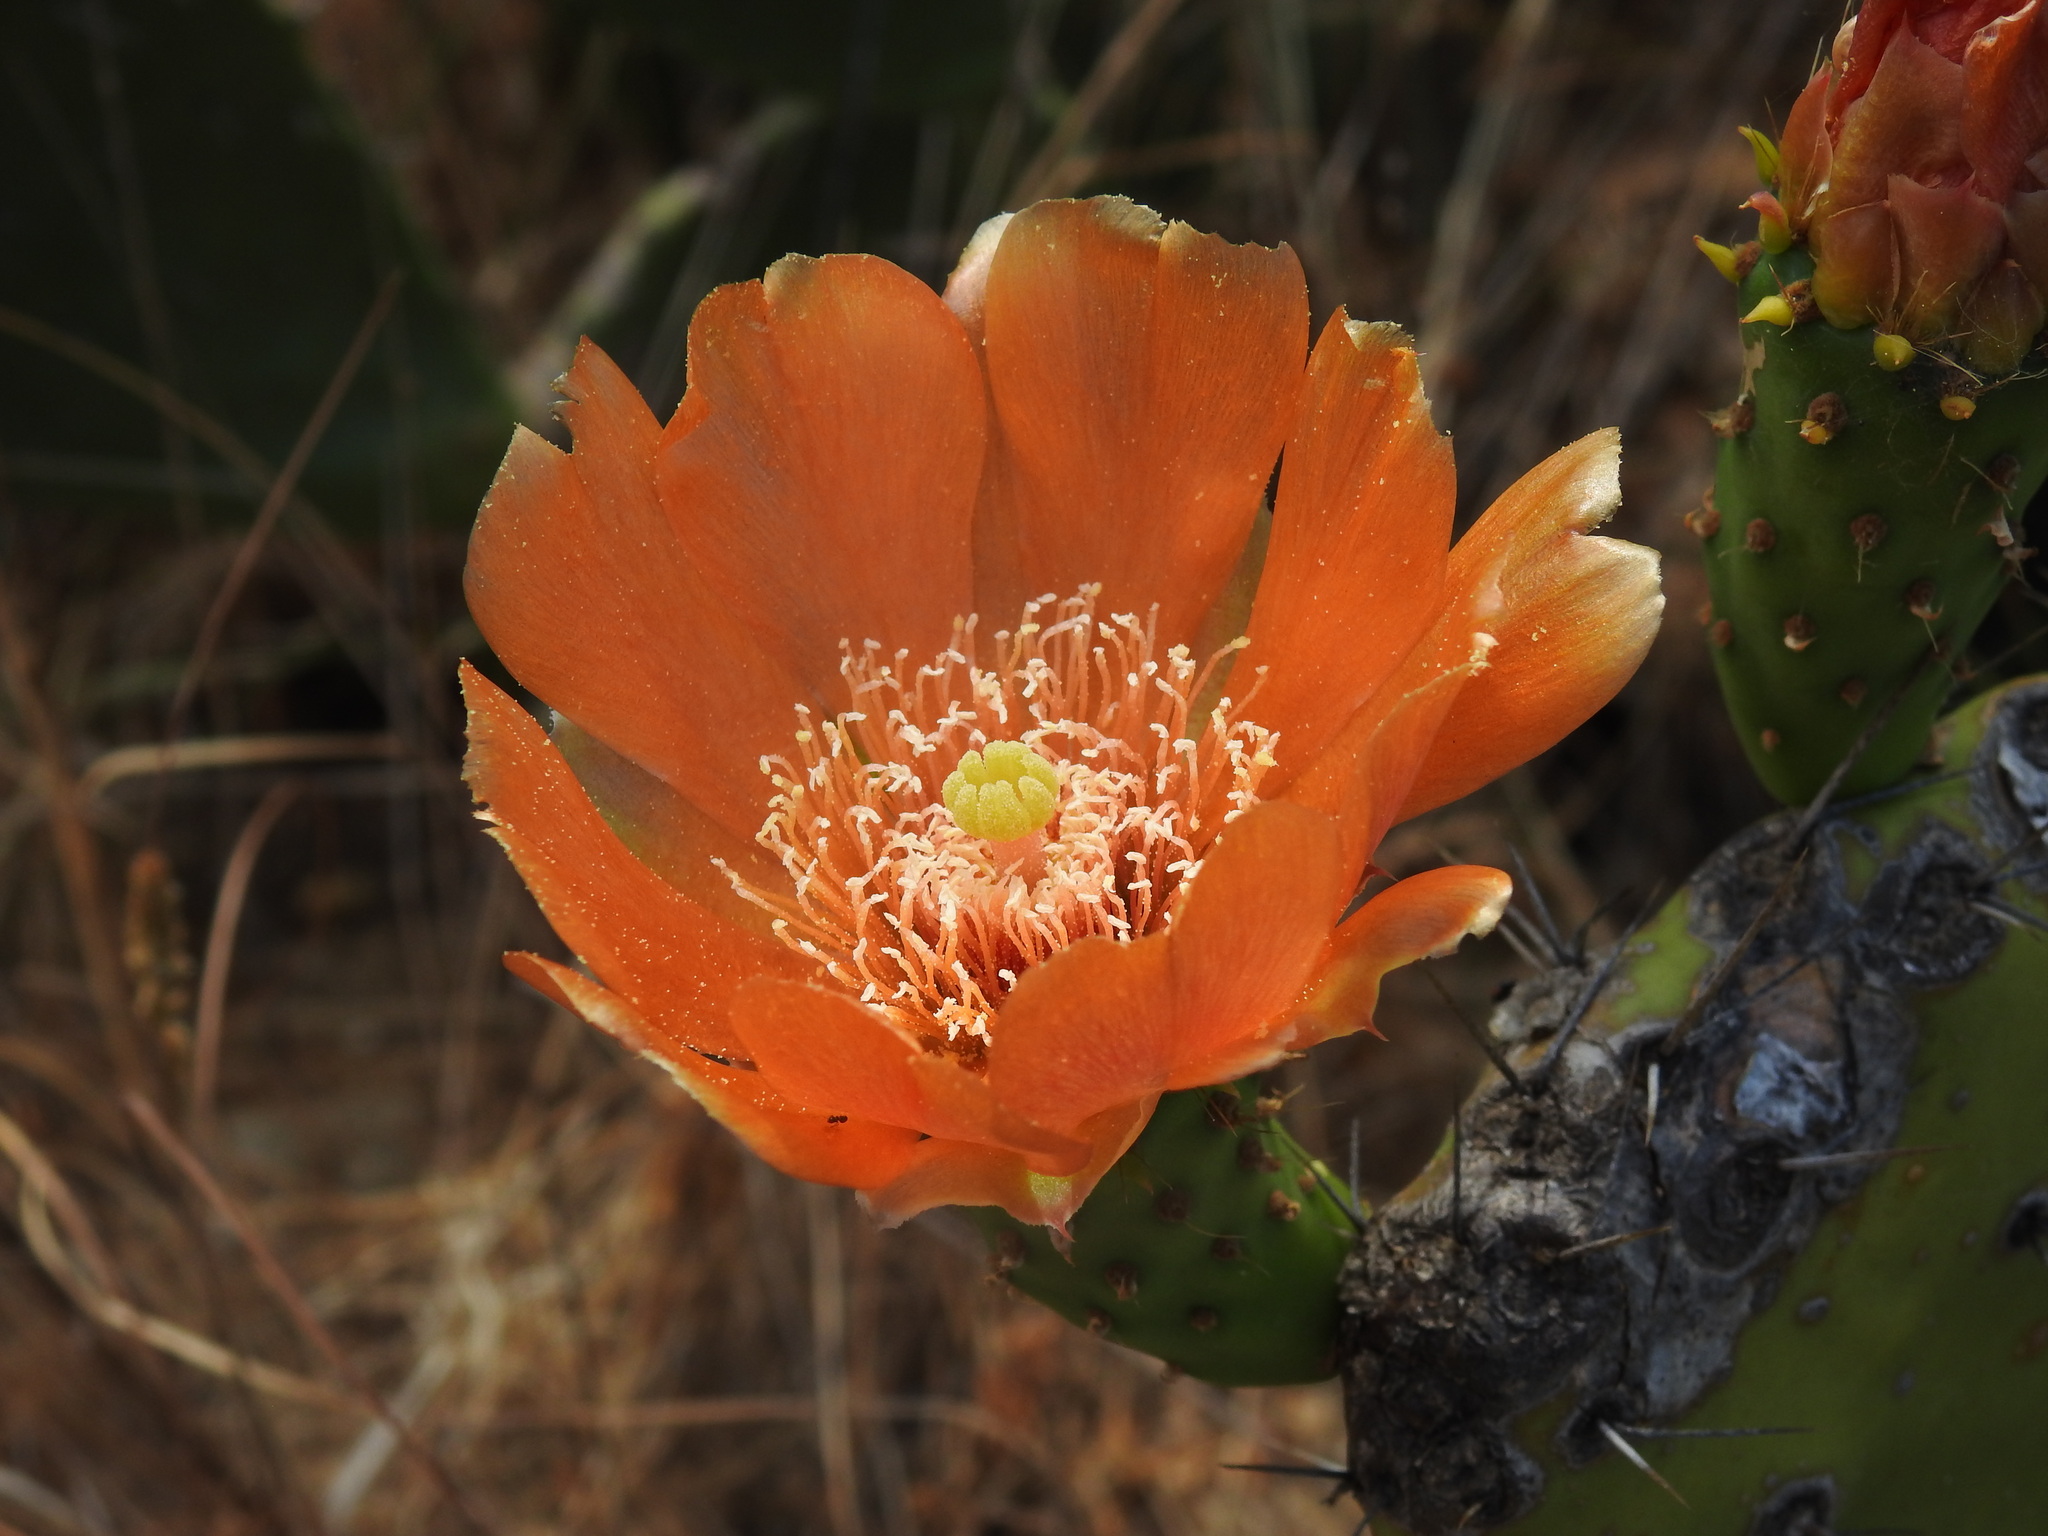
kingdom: Plantae
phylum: Tracheophyta
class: Magnoliopsida
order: Caryophyllales
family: Cactaceae
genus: Opuntia
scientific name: Opuntia ficus-indica
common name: Barbary fig
